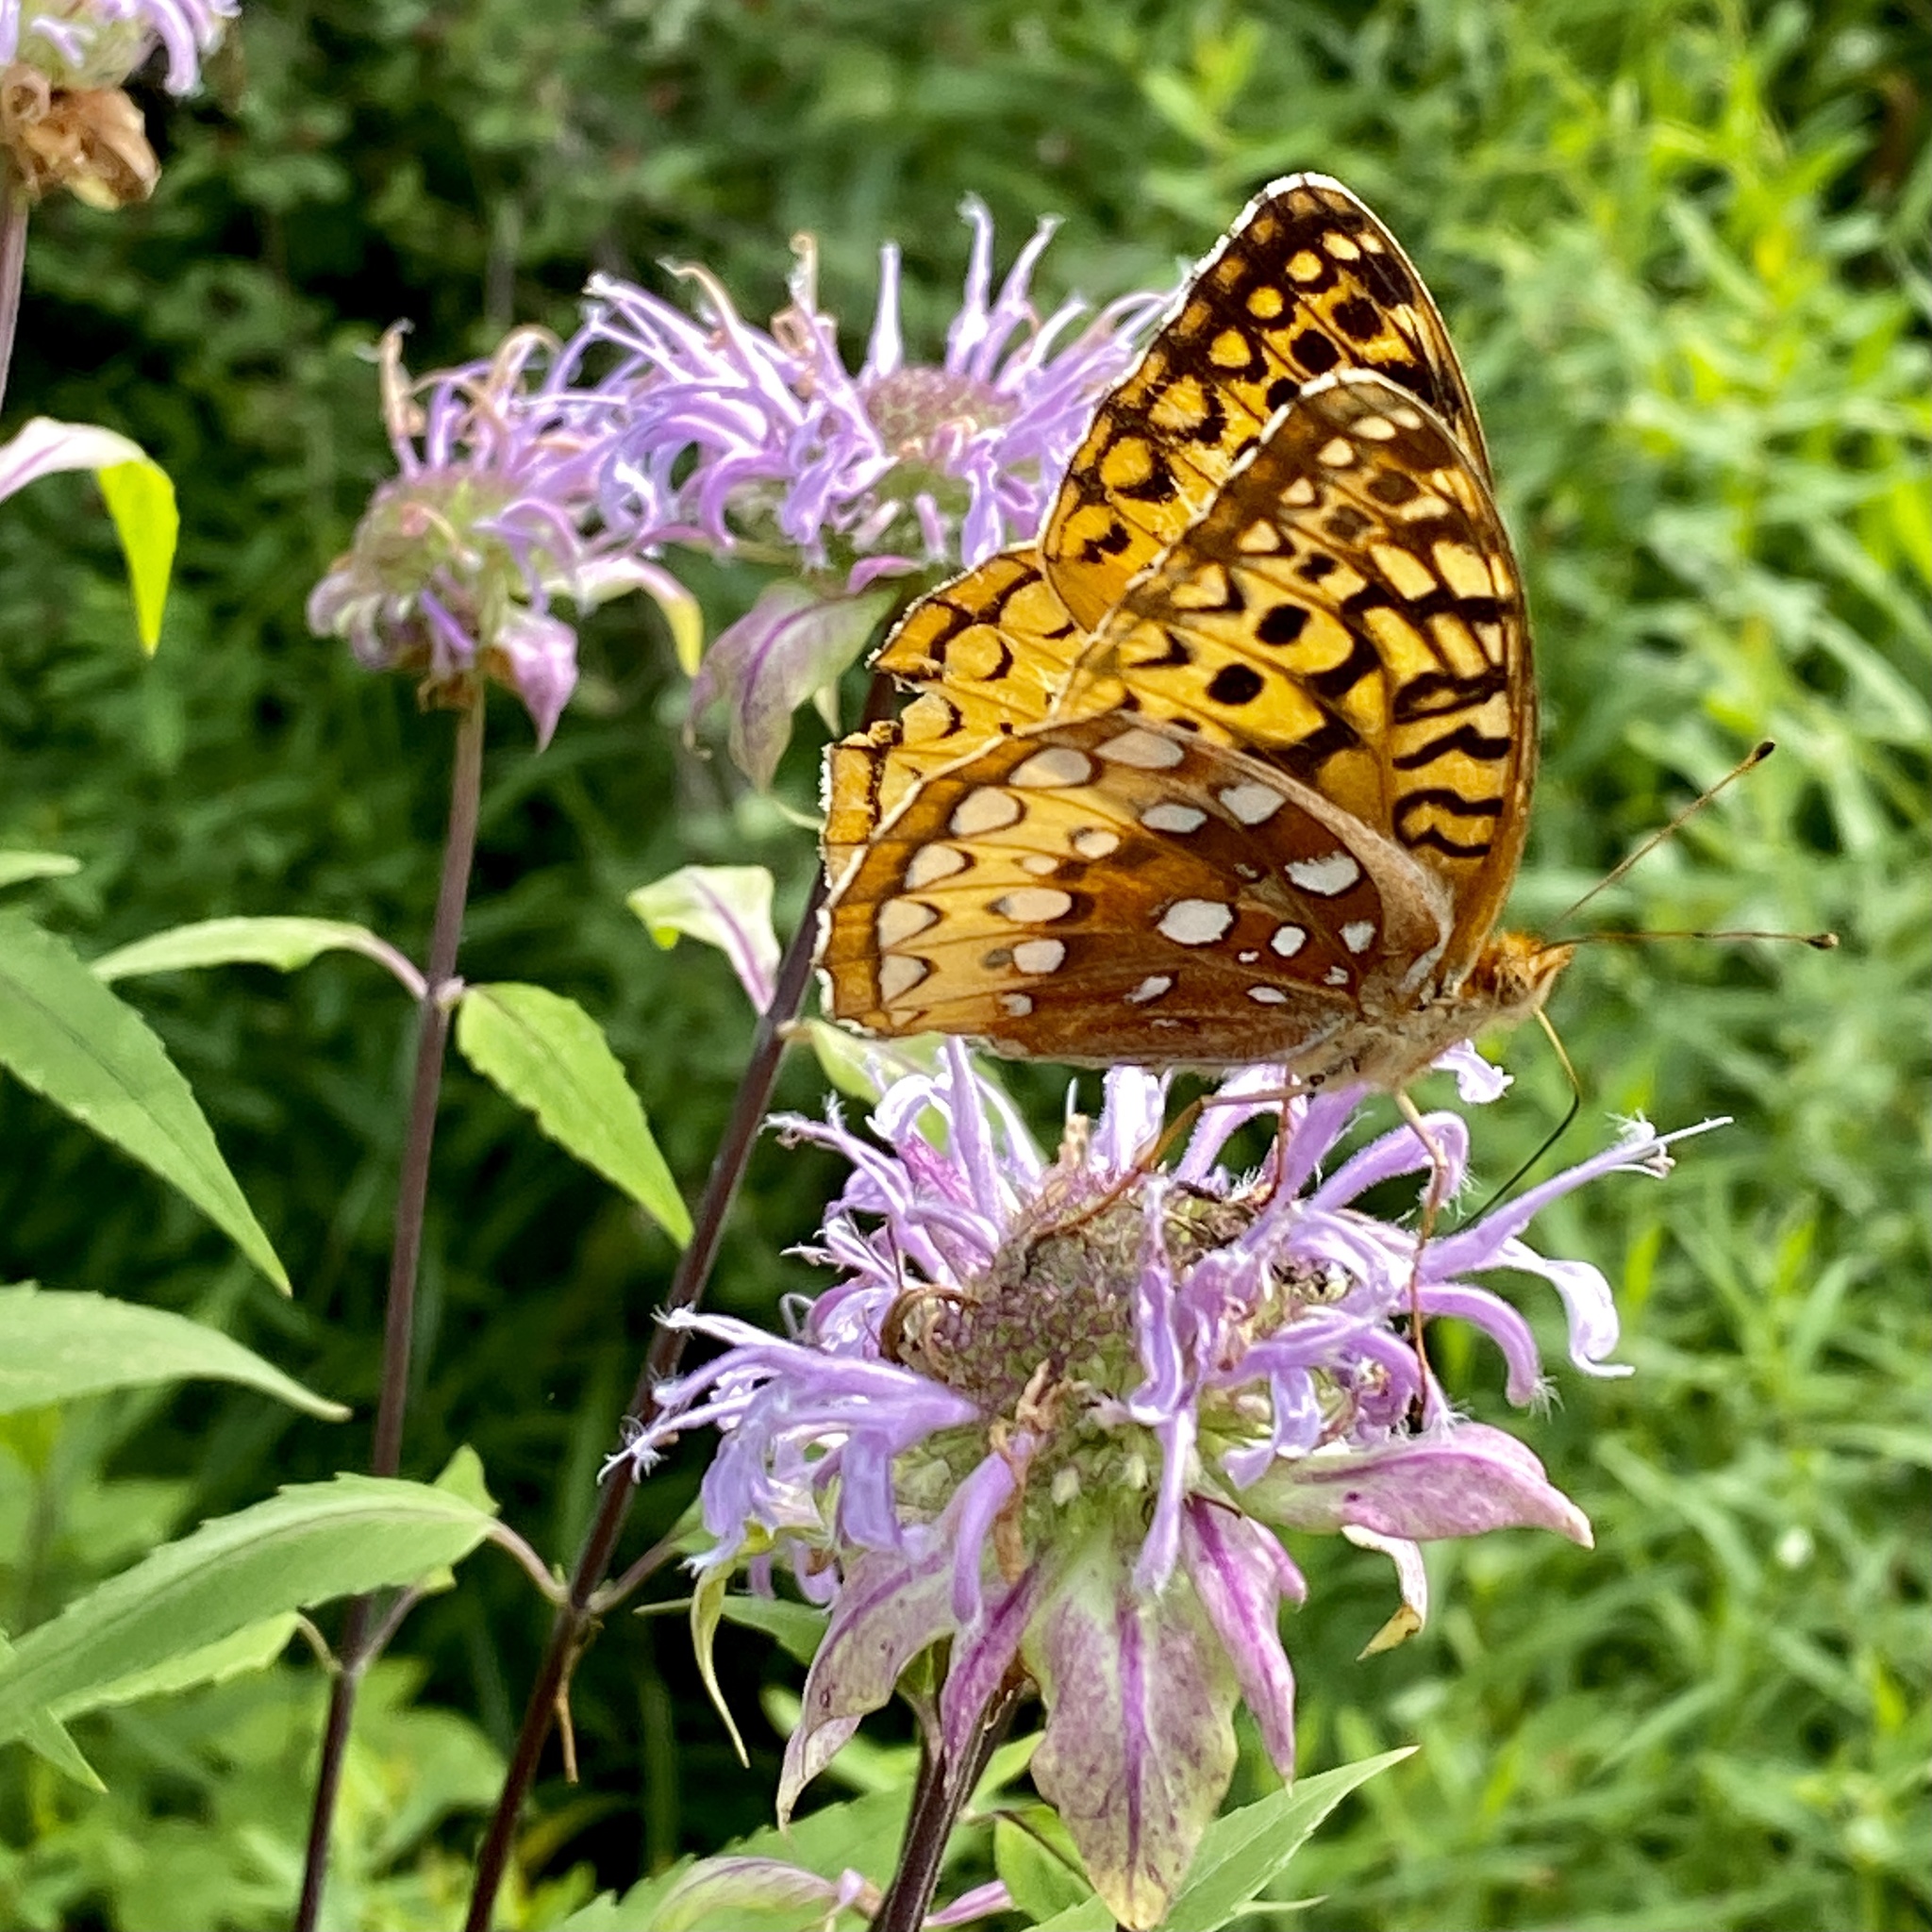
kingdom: Animalia
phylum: Arthropoda
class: Insecta
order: Lepidoptera
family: Nymphalidae
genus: Speyeria
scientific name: Speyeria cybele
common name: Great spangled fritillary
